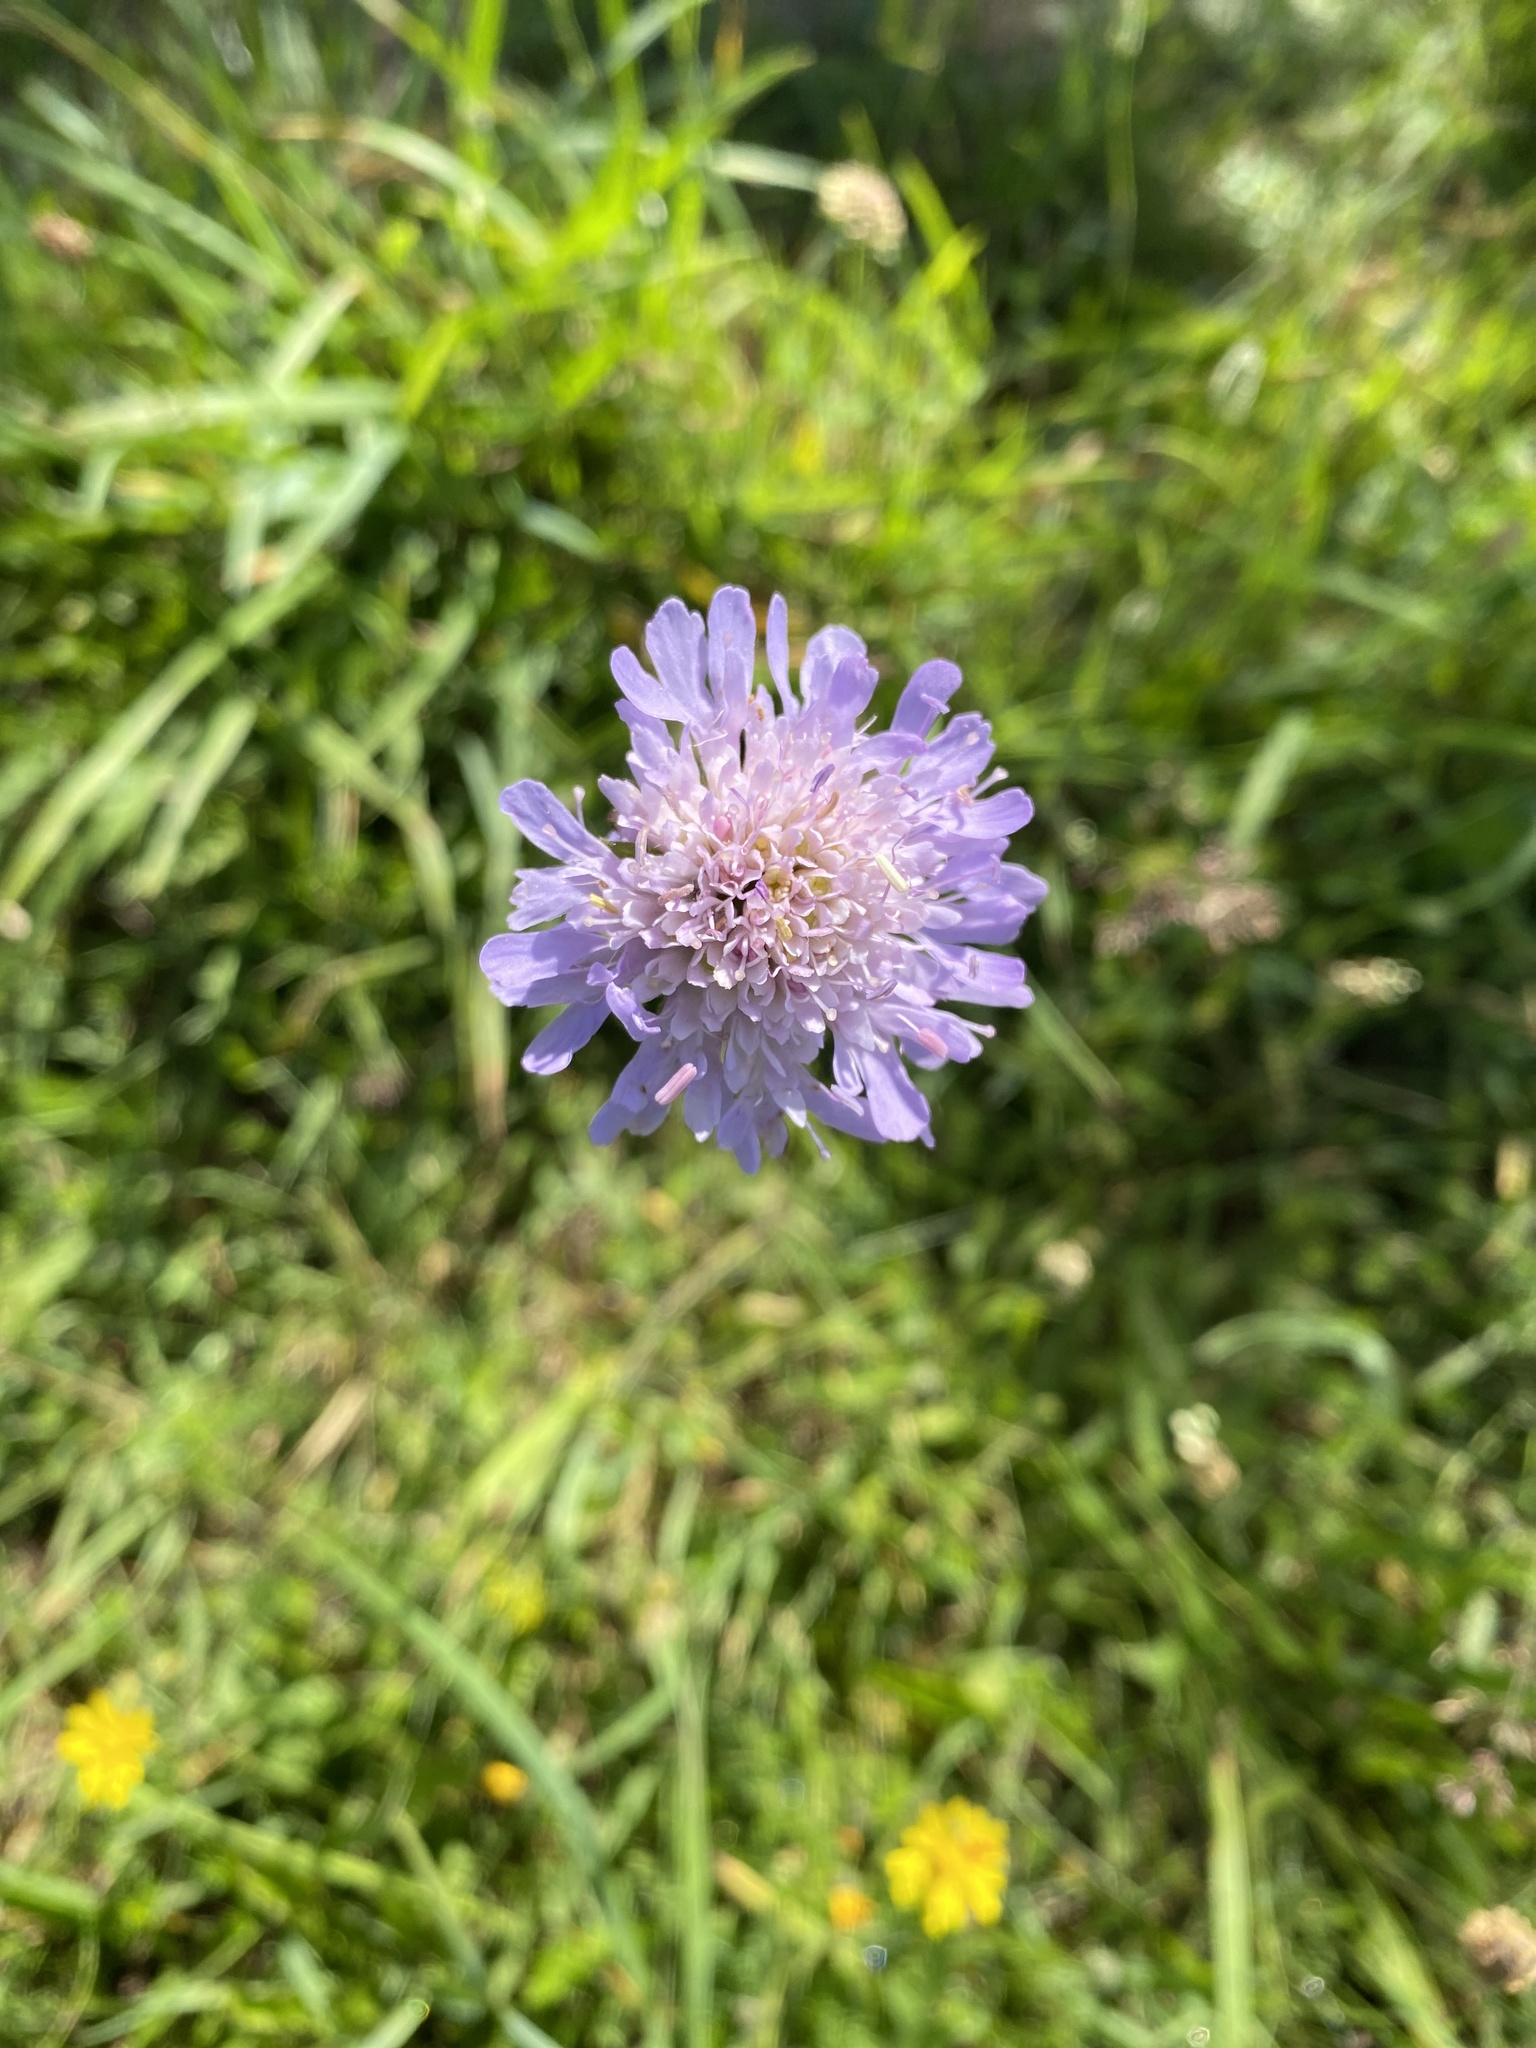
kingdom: Plantae
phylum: Tracheophyta
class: Magnoliopsida
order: Dipsacales
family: Caprifoliaceae
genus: Knautia
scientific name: Knautia arvensis
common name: Field scabiosa
